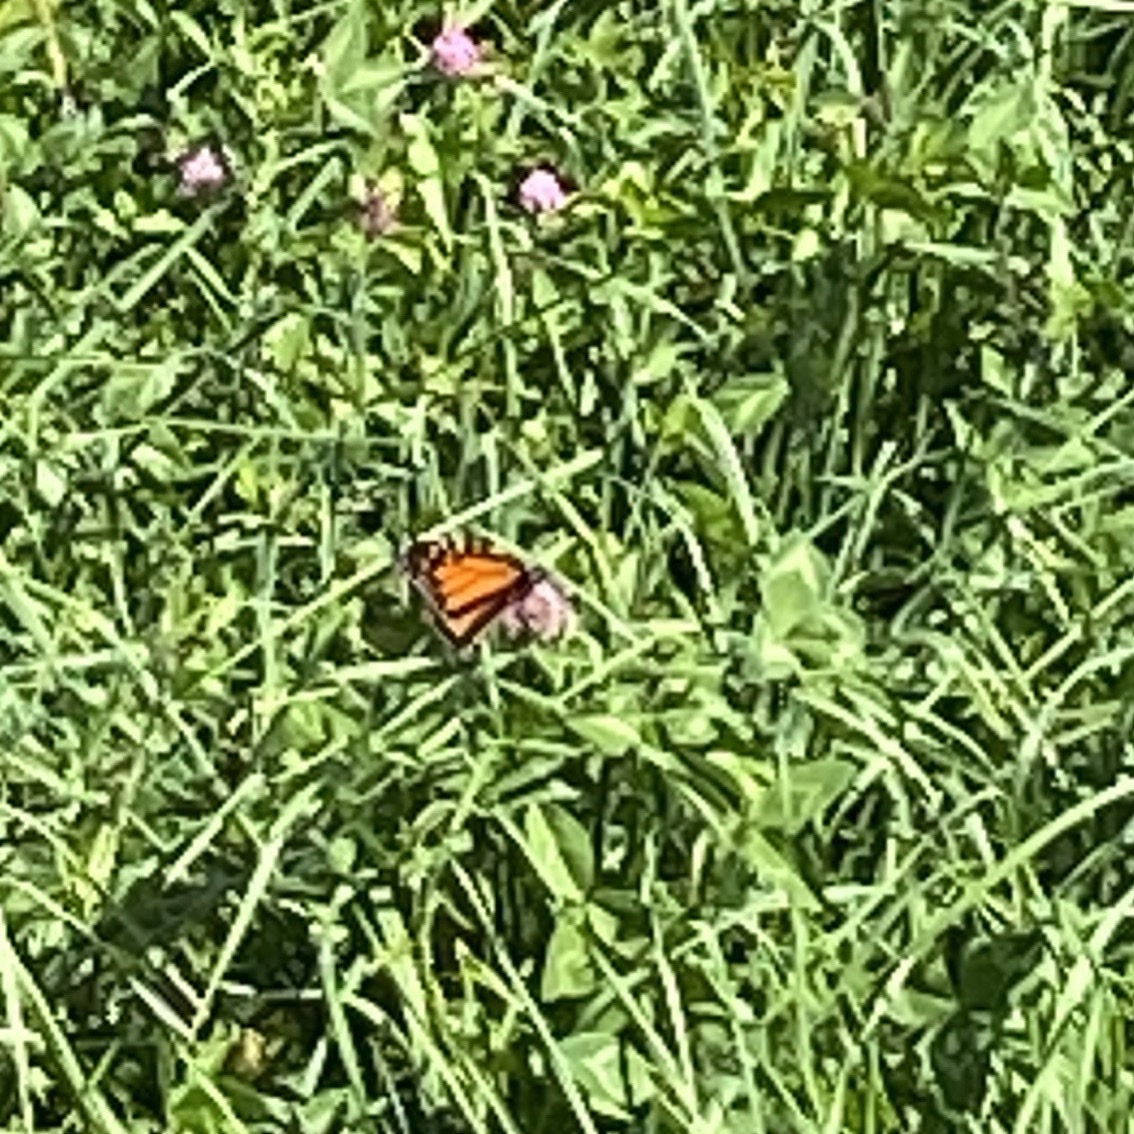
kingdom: Animalia
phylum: Arthropoda
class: Insecta
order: Lepidoptera
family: Nymphalidae
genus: Danaus
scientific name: Danaus plexippus
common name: Monarch
